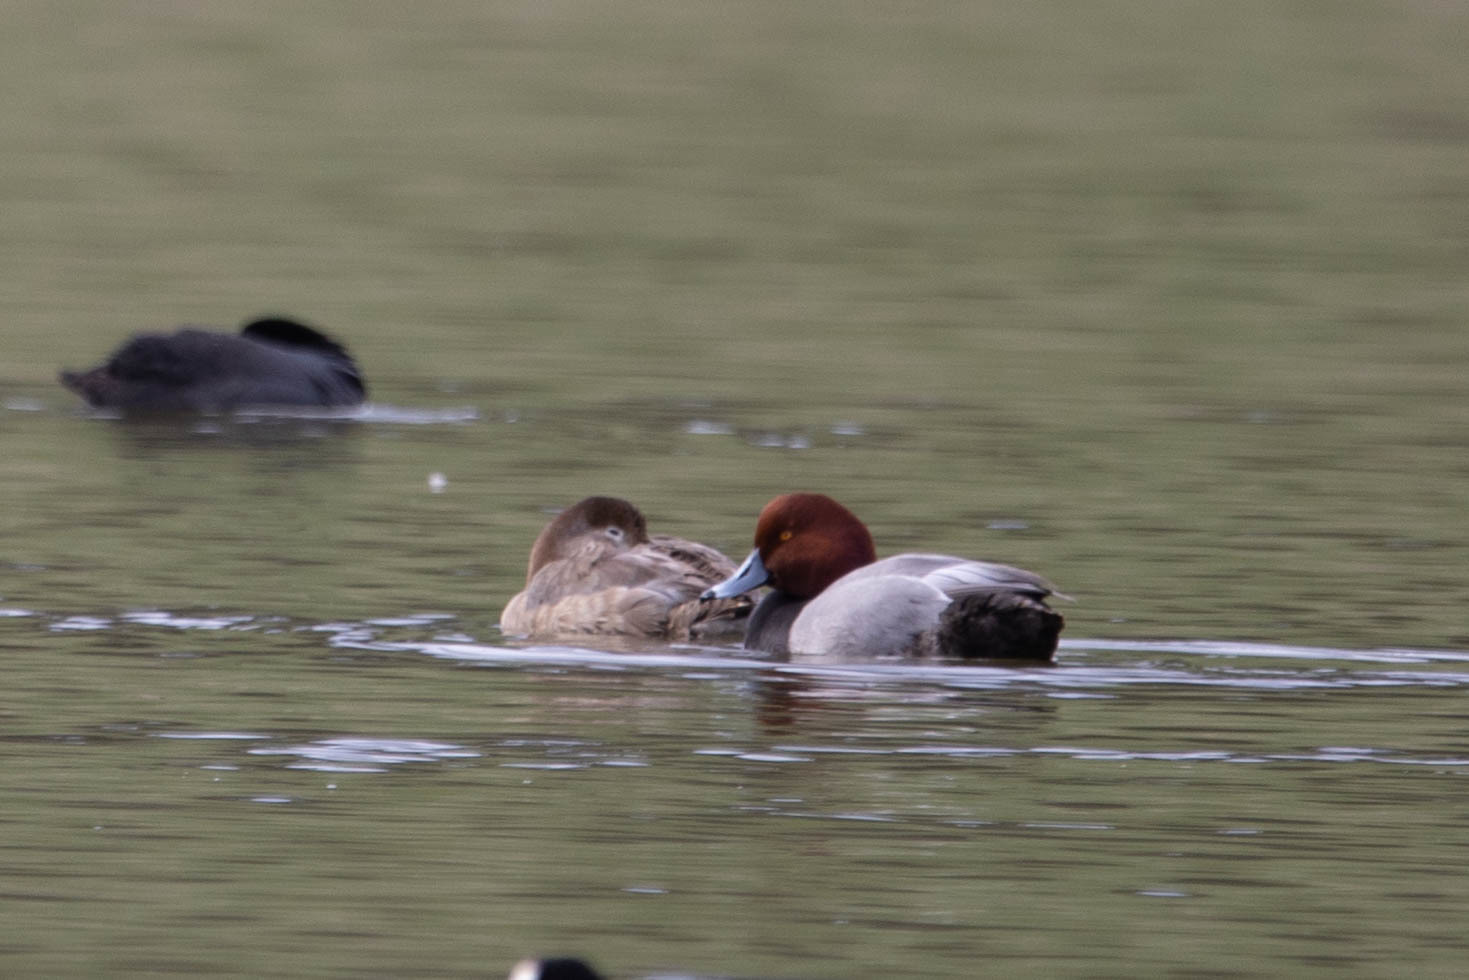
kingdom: Animalia
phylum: Chordata
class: Aves
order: Anseriformes
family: Anatidae
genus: Aythya
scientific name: Aythya americana
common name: Redhead
